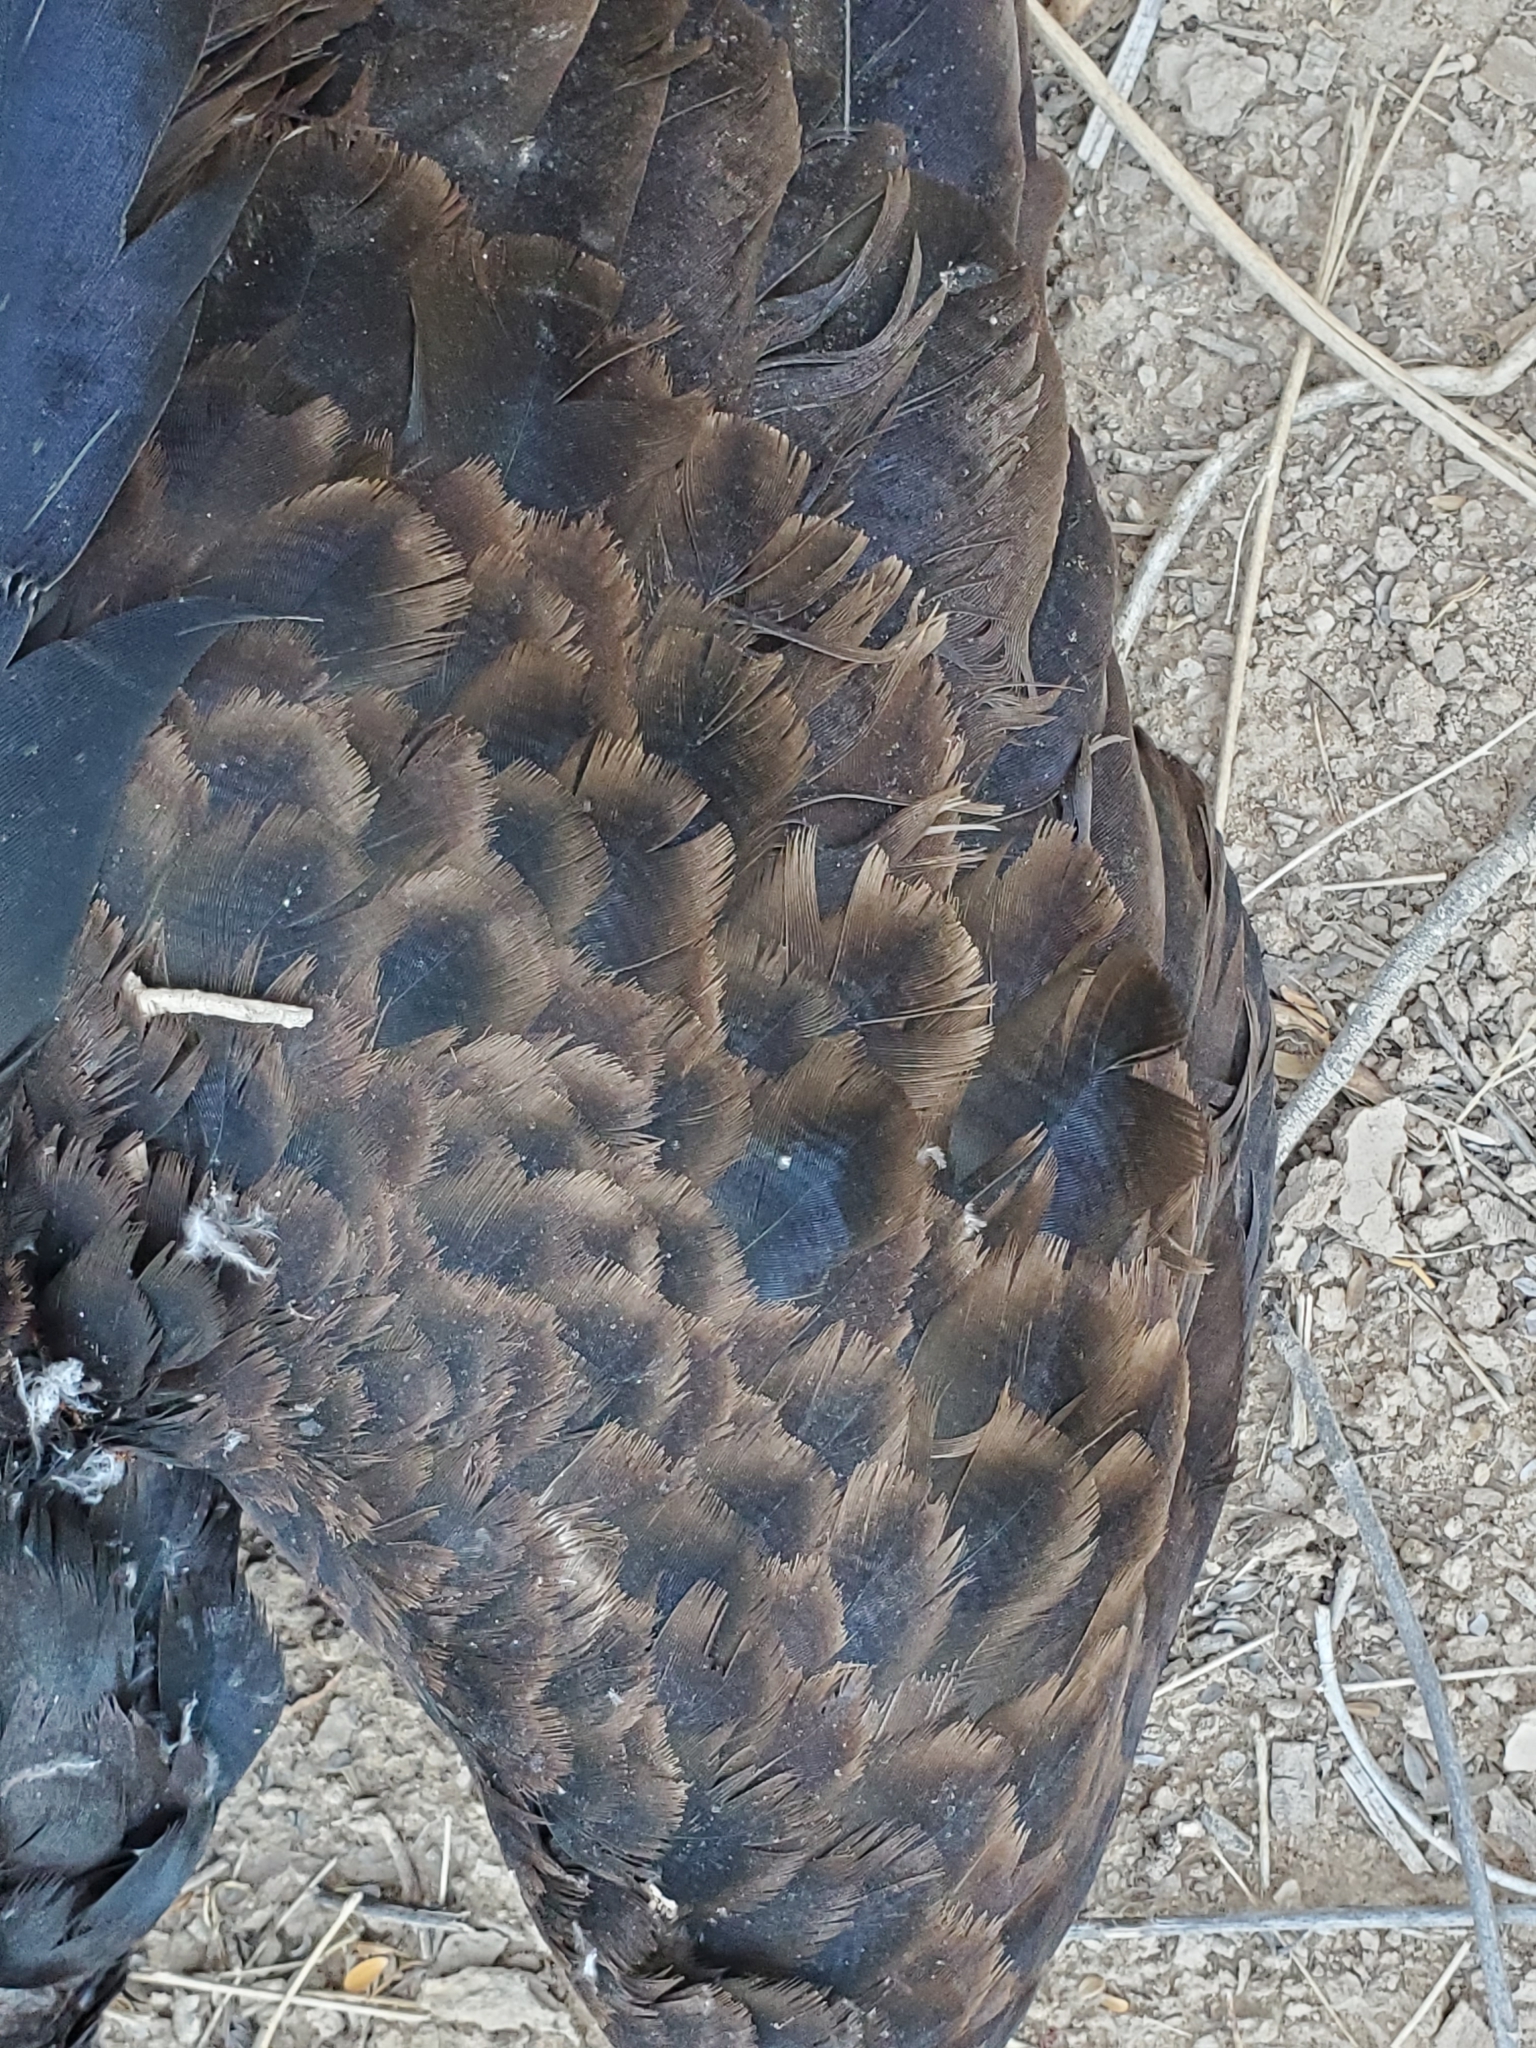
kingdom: Animalia
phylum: Chordata
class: Aves
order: Accipitriformes
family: Cathartidae
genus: Cathartes
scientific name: Cathartes aura
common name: Turkey vulture
